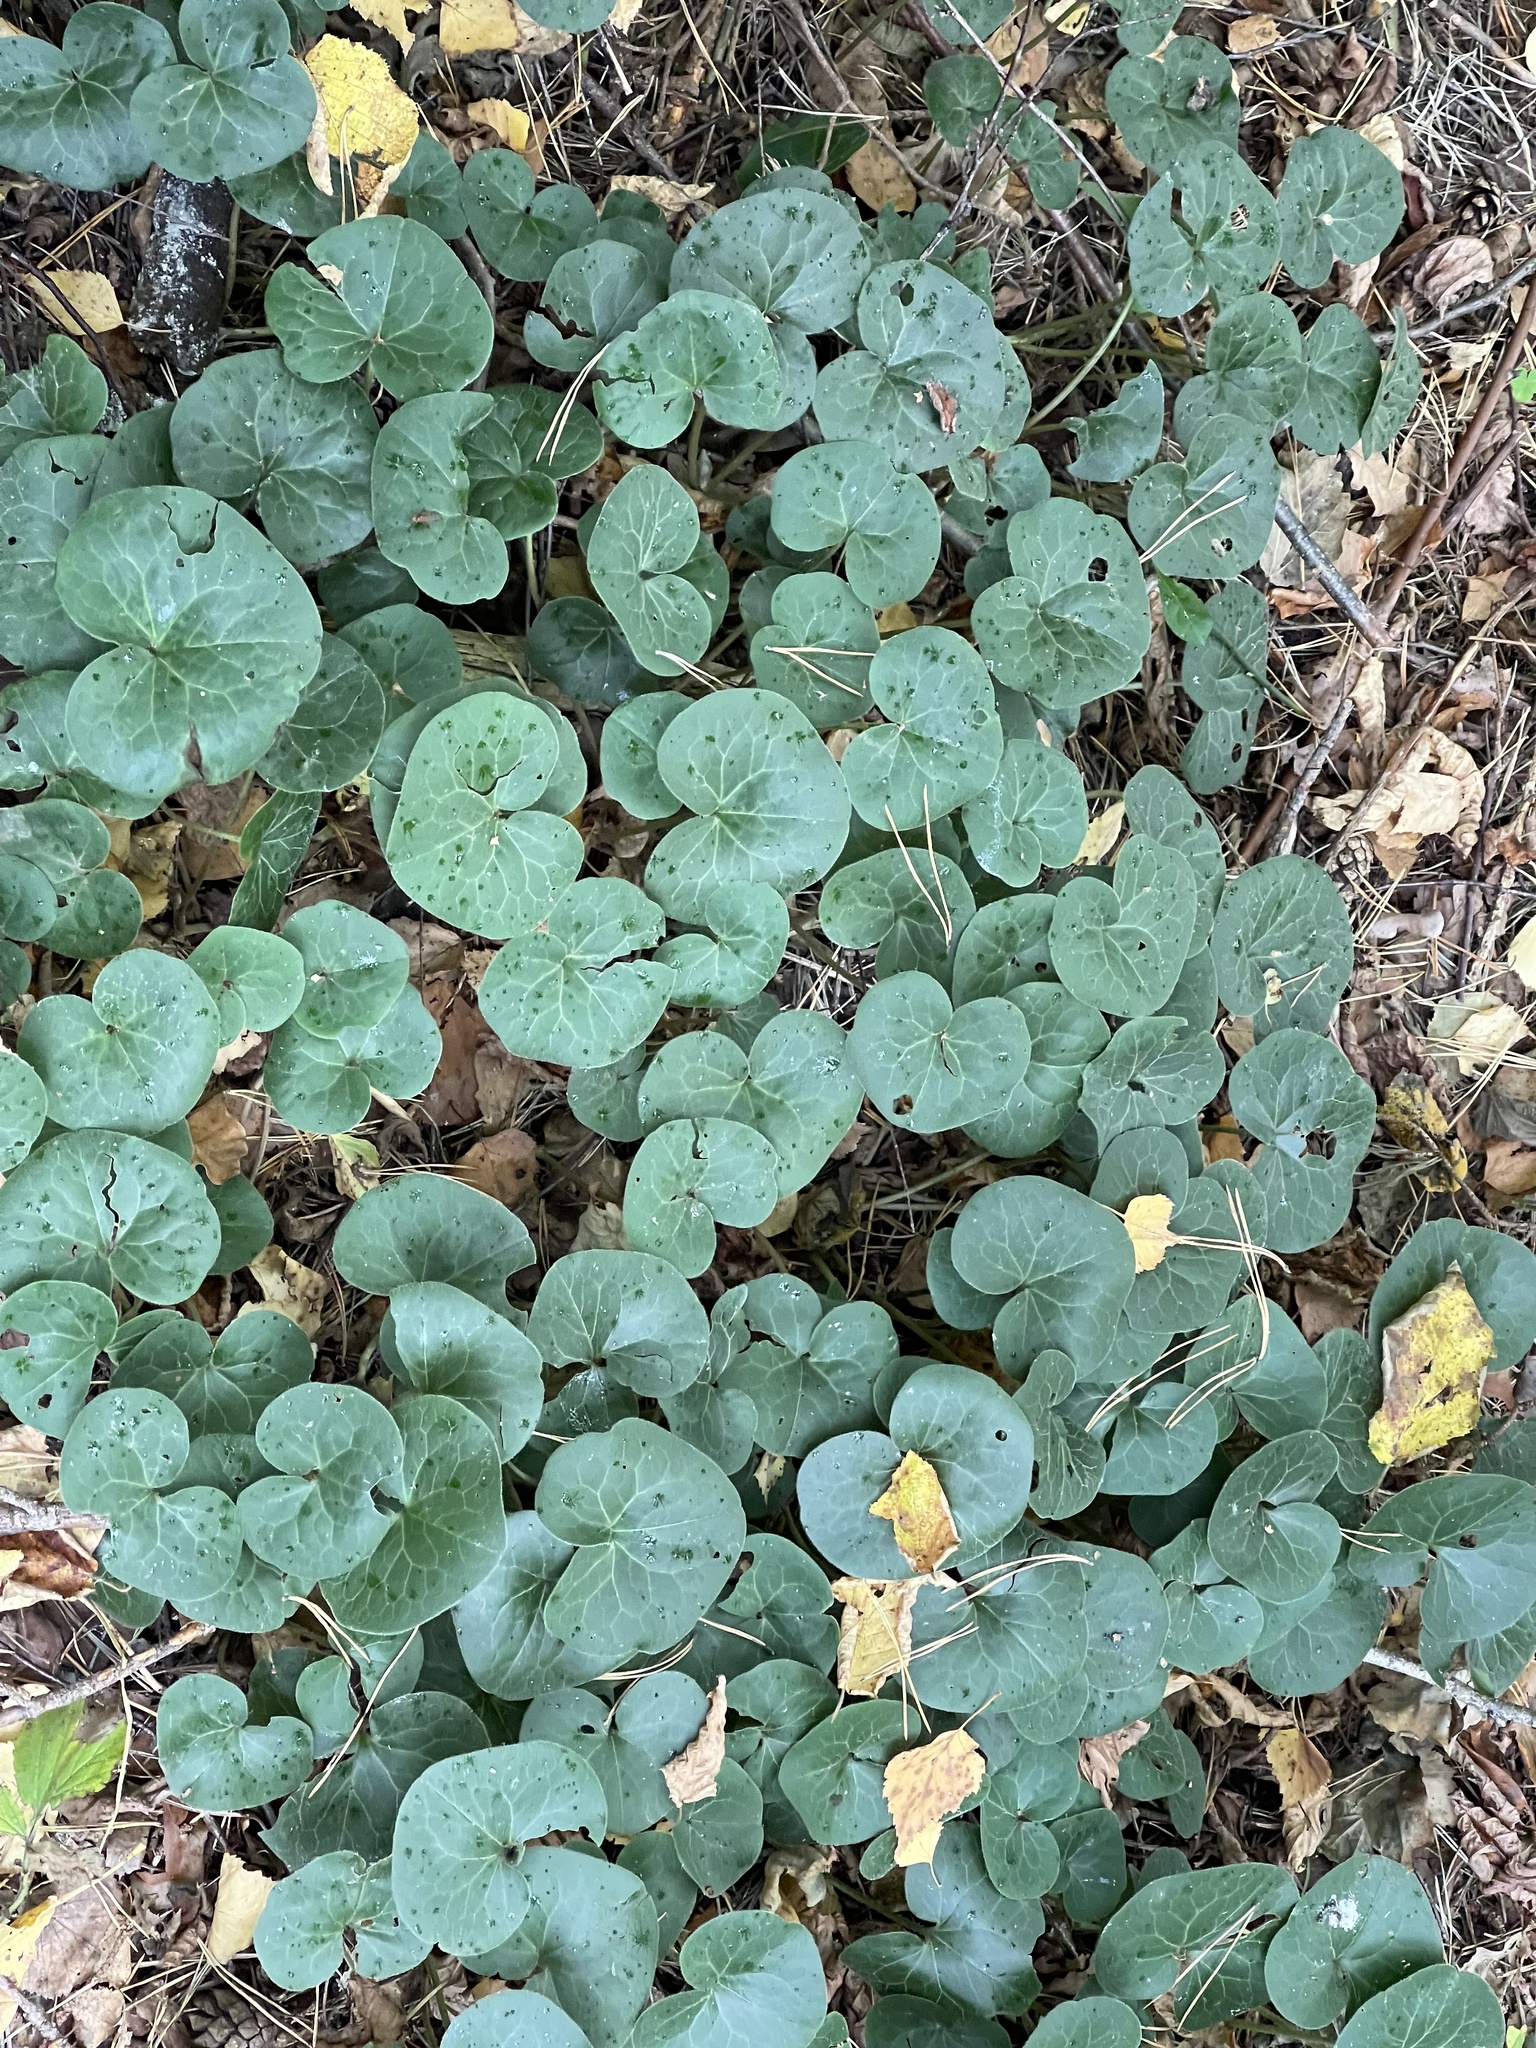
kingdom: Plantae
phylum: Tracheophyta
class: Magnoliopsida
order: Piperales
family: Aristolochiaceae
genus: Asarum
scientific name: Asarum europaeum
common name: Asarabacca
